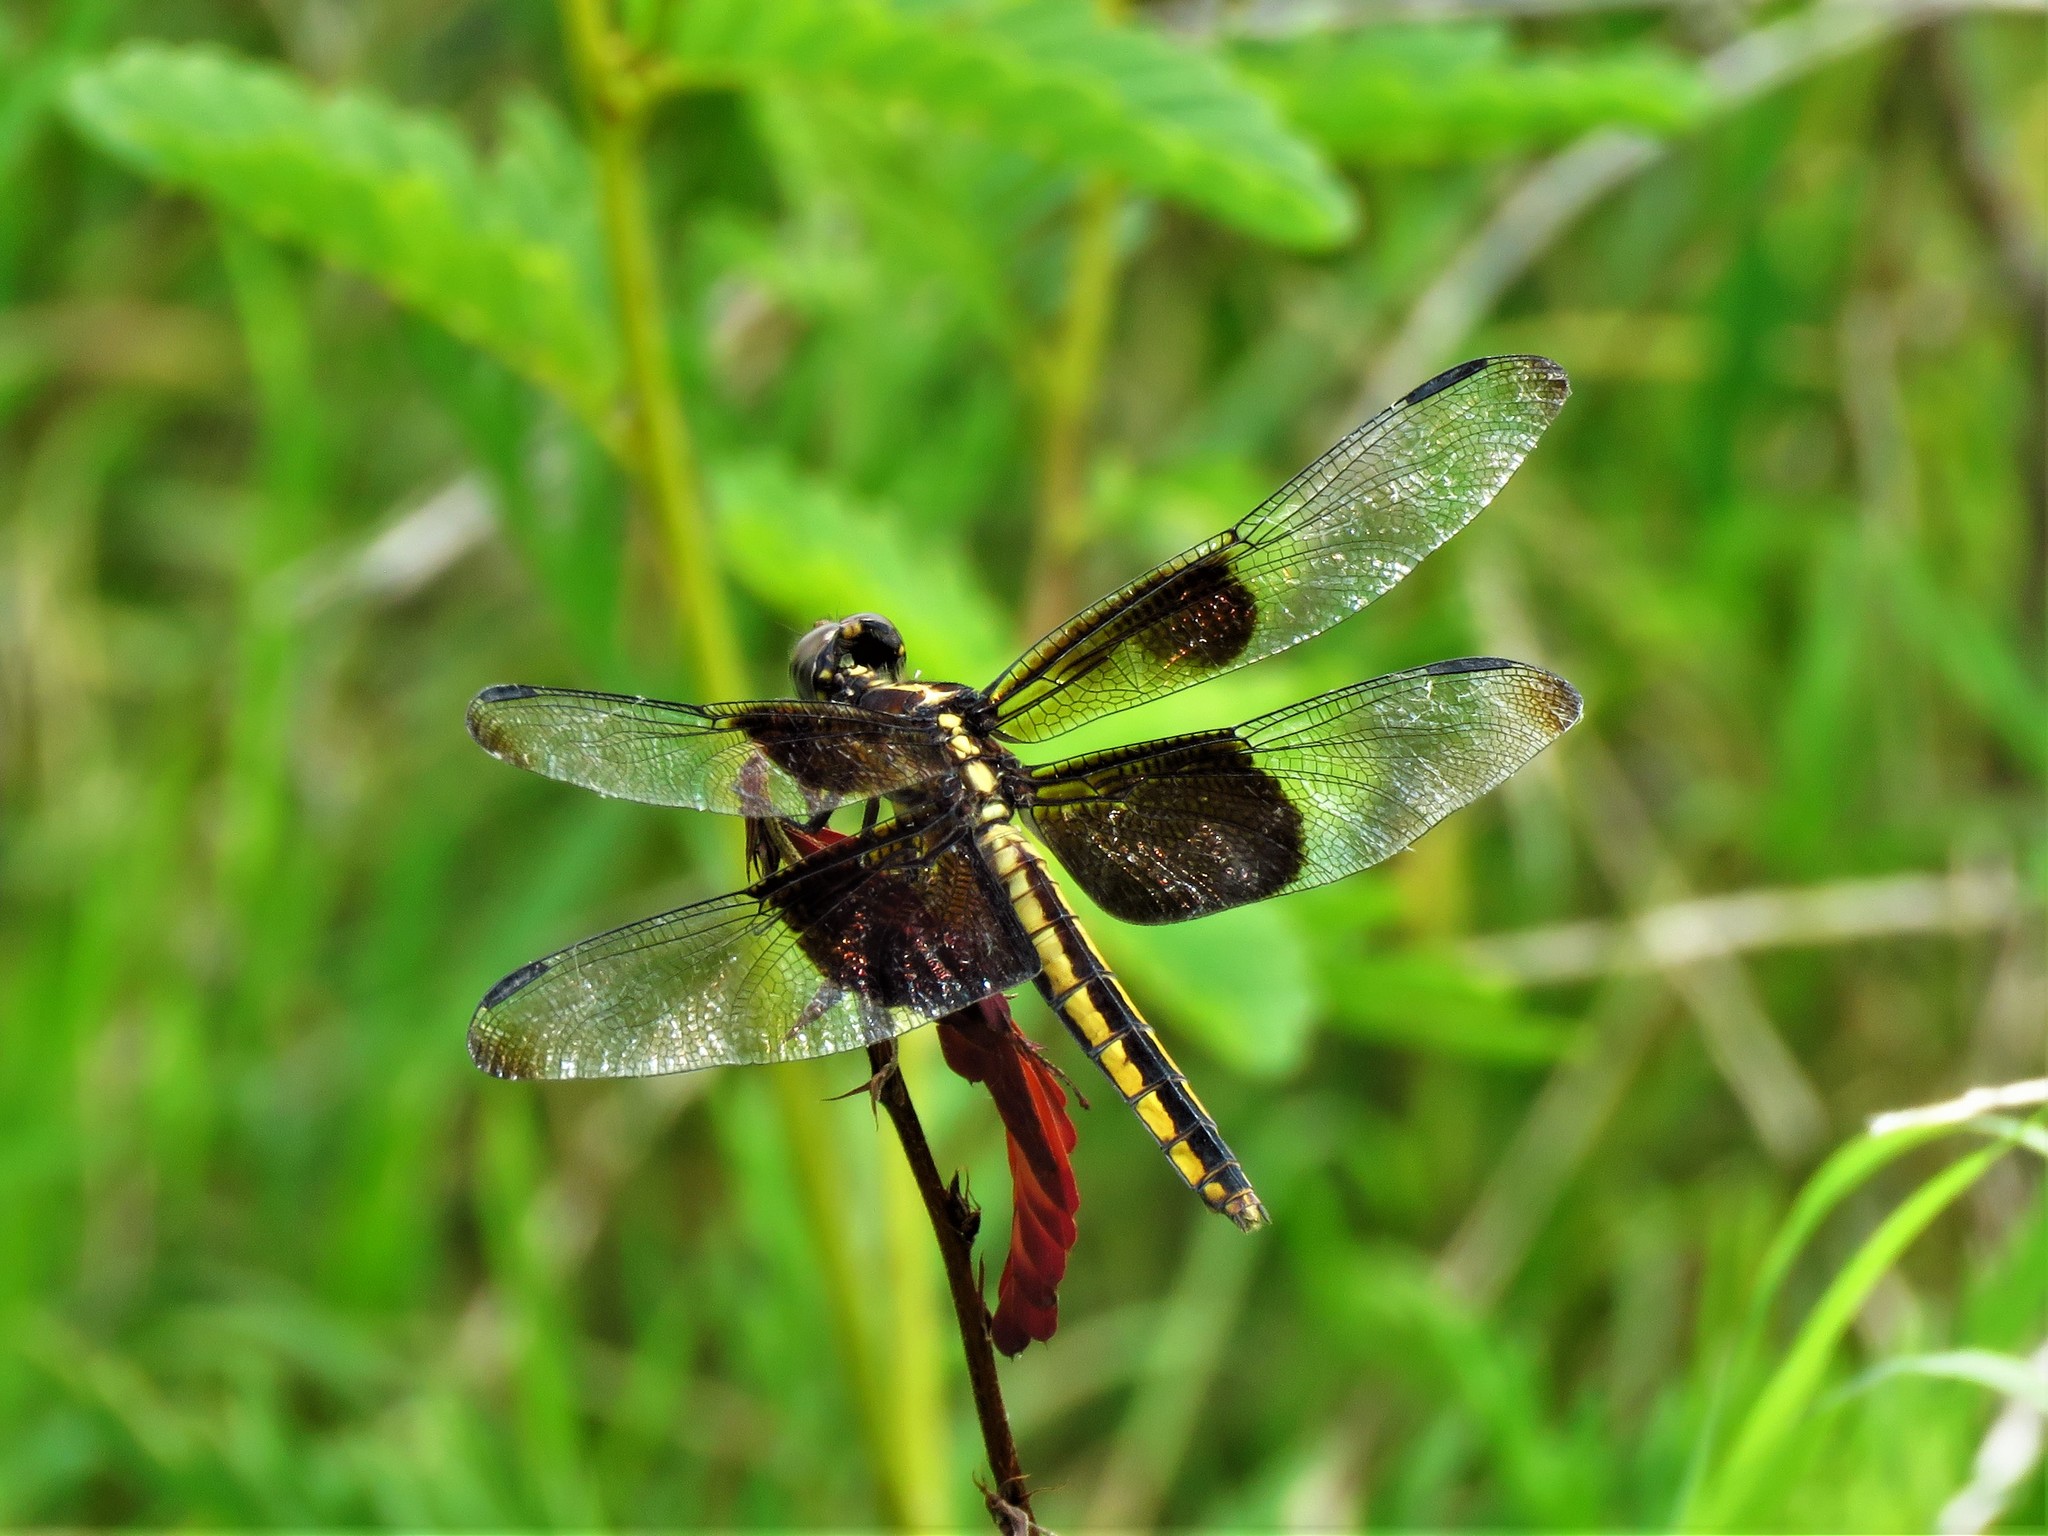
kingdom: Animalia
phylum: Arthropoda
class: Insecta
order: Odonata
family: Libellulidae
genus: Libellula
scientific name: Libellula luctuosa
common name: Widow skimmer
